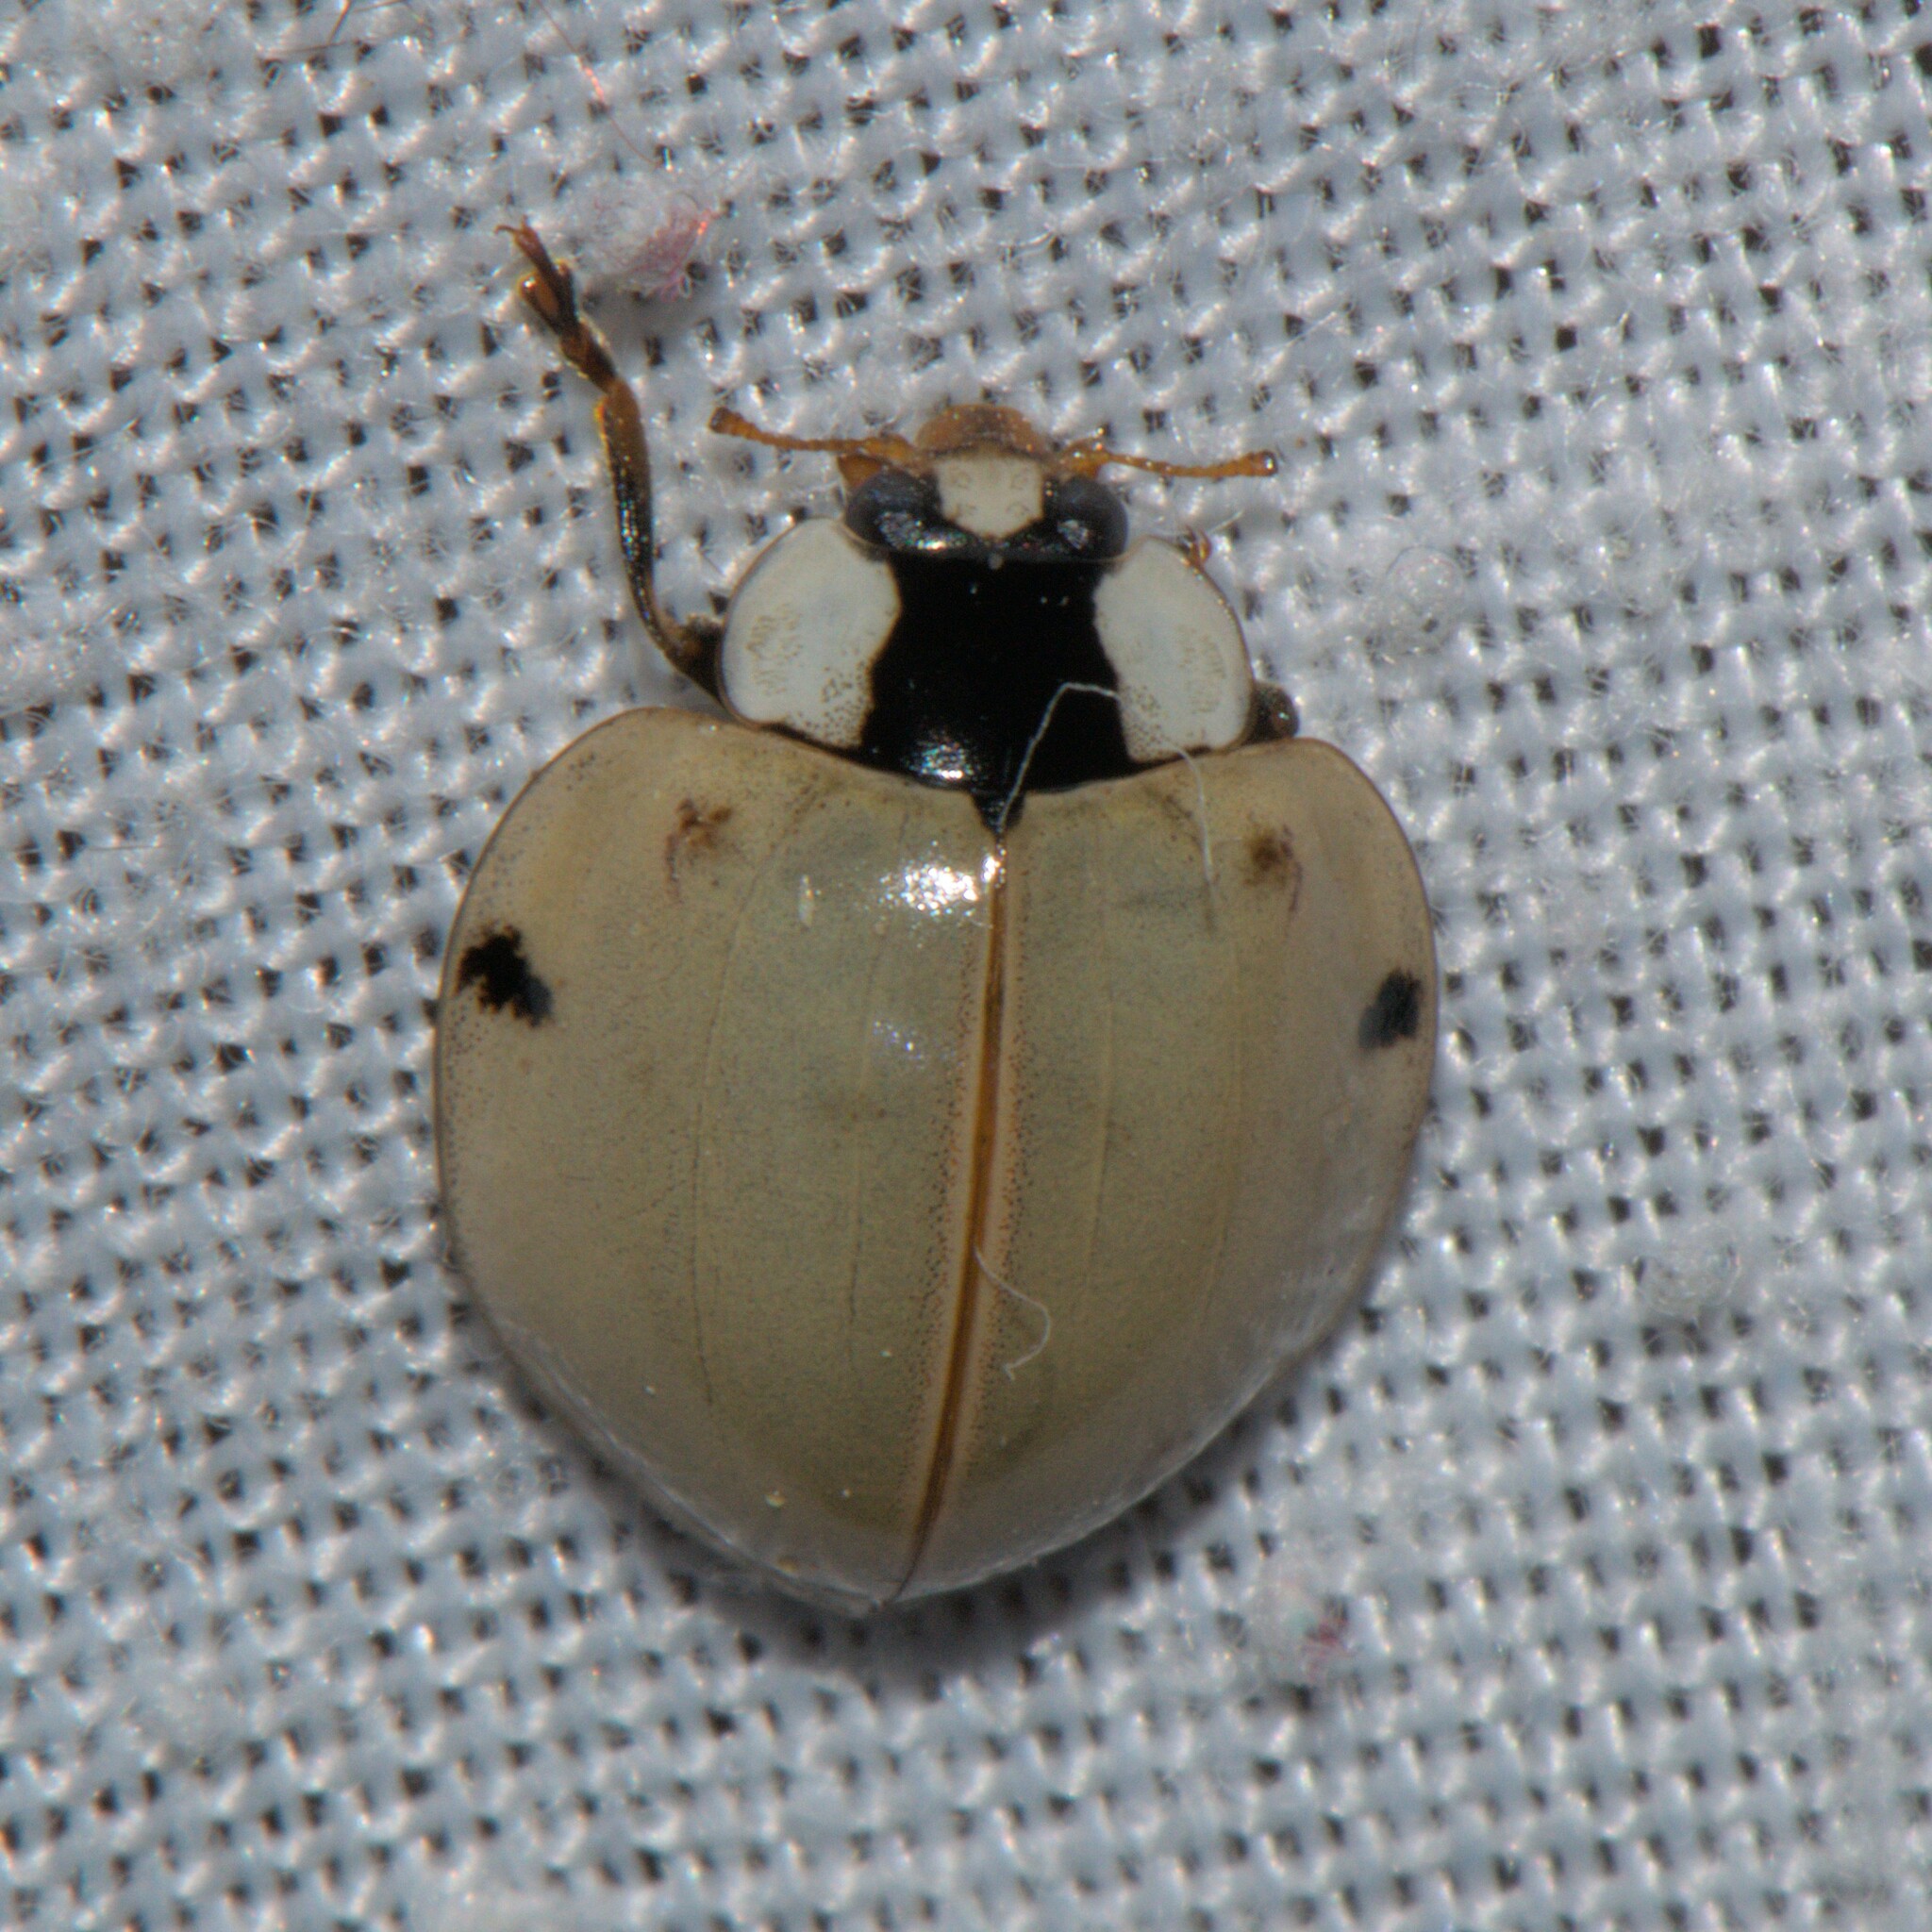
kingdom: Animalia
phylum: Arthropoda
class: Insecta
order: Coleoptera
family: Coccinellidae
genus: Harmonia
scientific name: Harmonia eucharis
